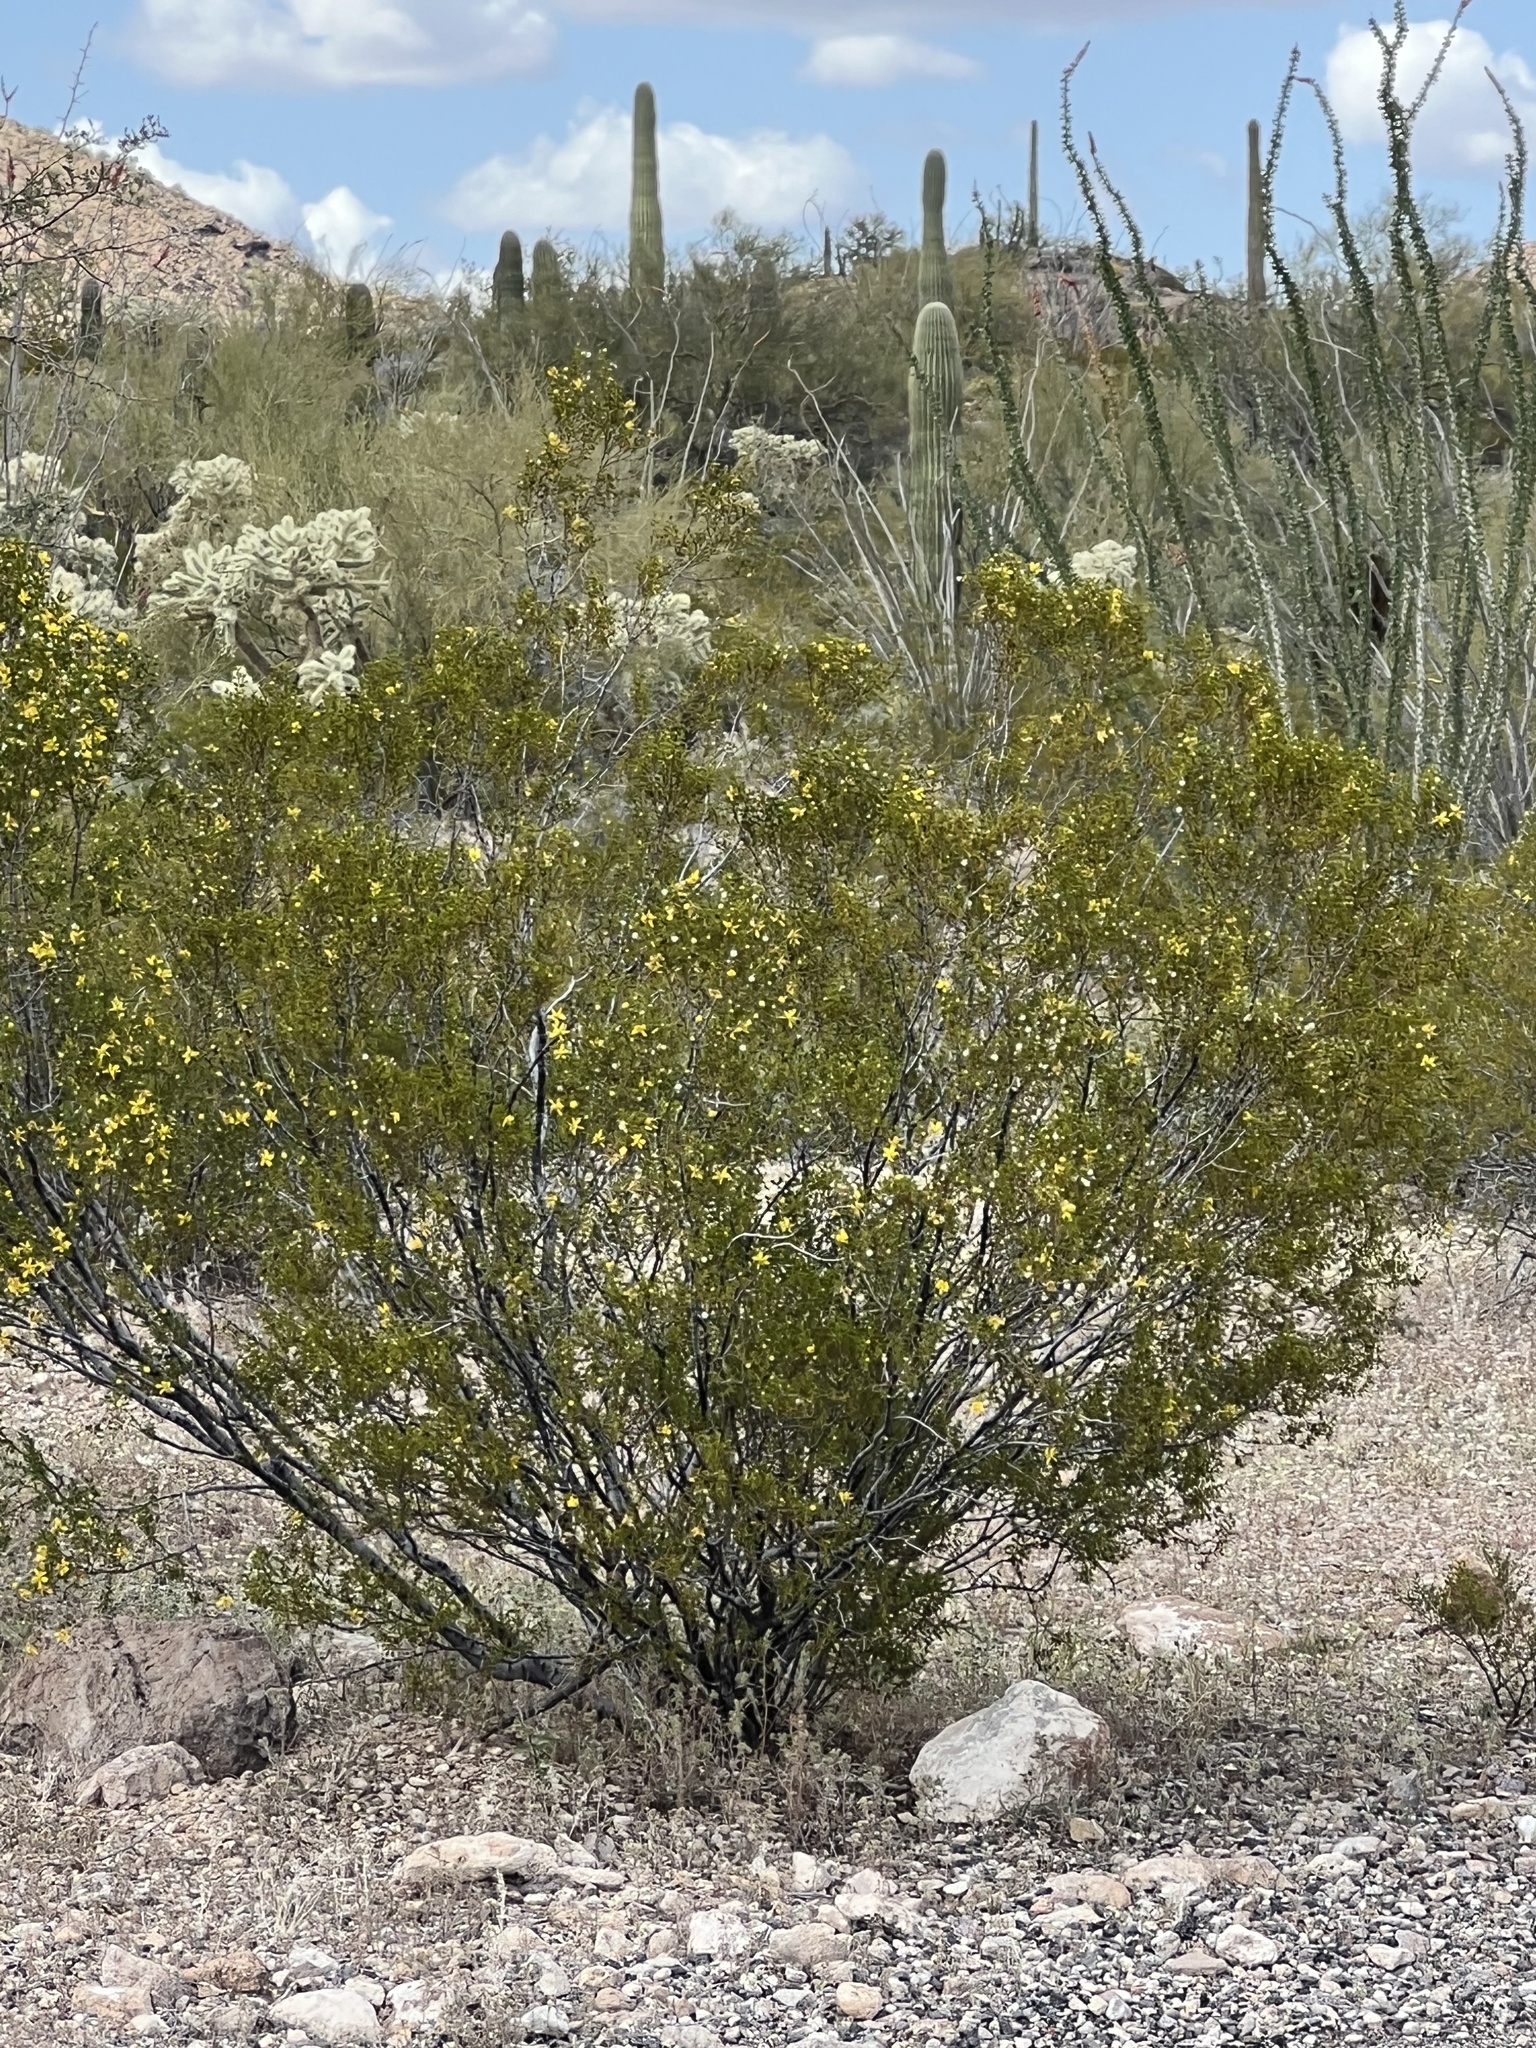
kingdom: Plantae
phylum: Tracheophyta
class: Magnoliopsida
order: Zygophyllales
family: Zygophyllaceae
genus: Larrea
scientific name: Larrea tridentata
